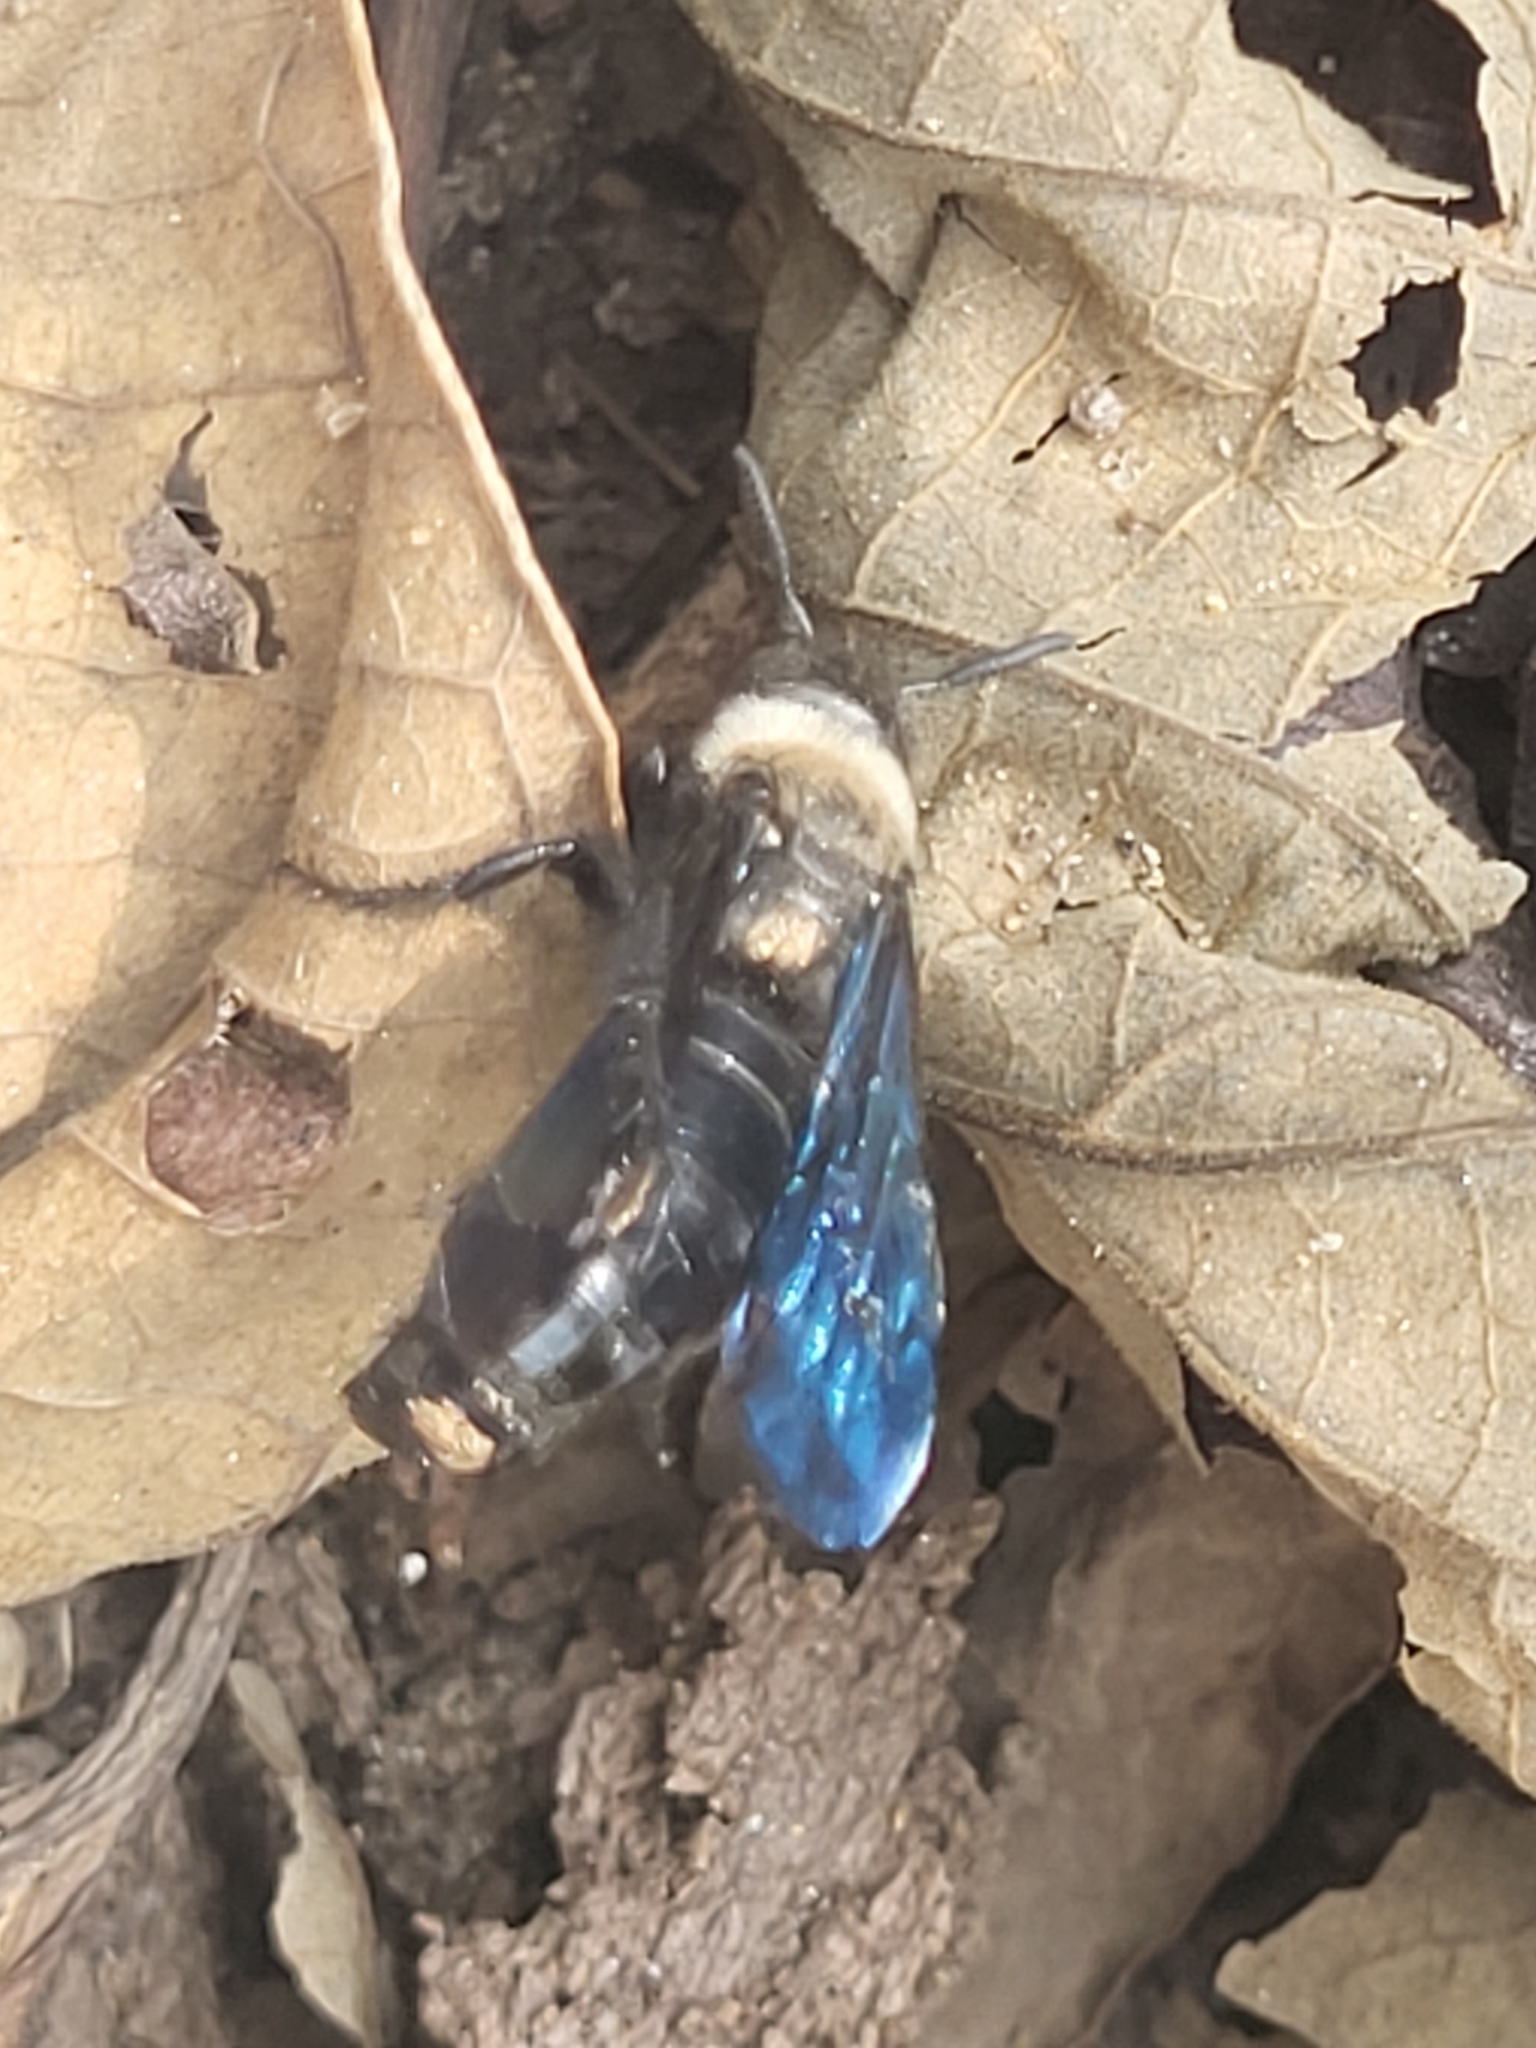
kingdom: Animalia
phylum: Arthropoda
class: Insecta
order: Hymenoptera
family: Scoliidae
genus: Campsomeriella
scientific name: Campsomeriella collaris
